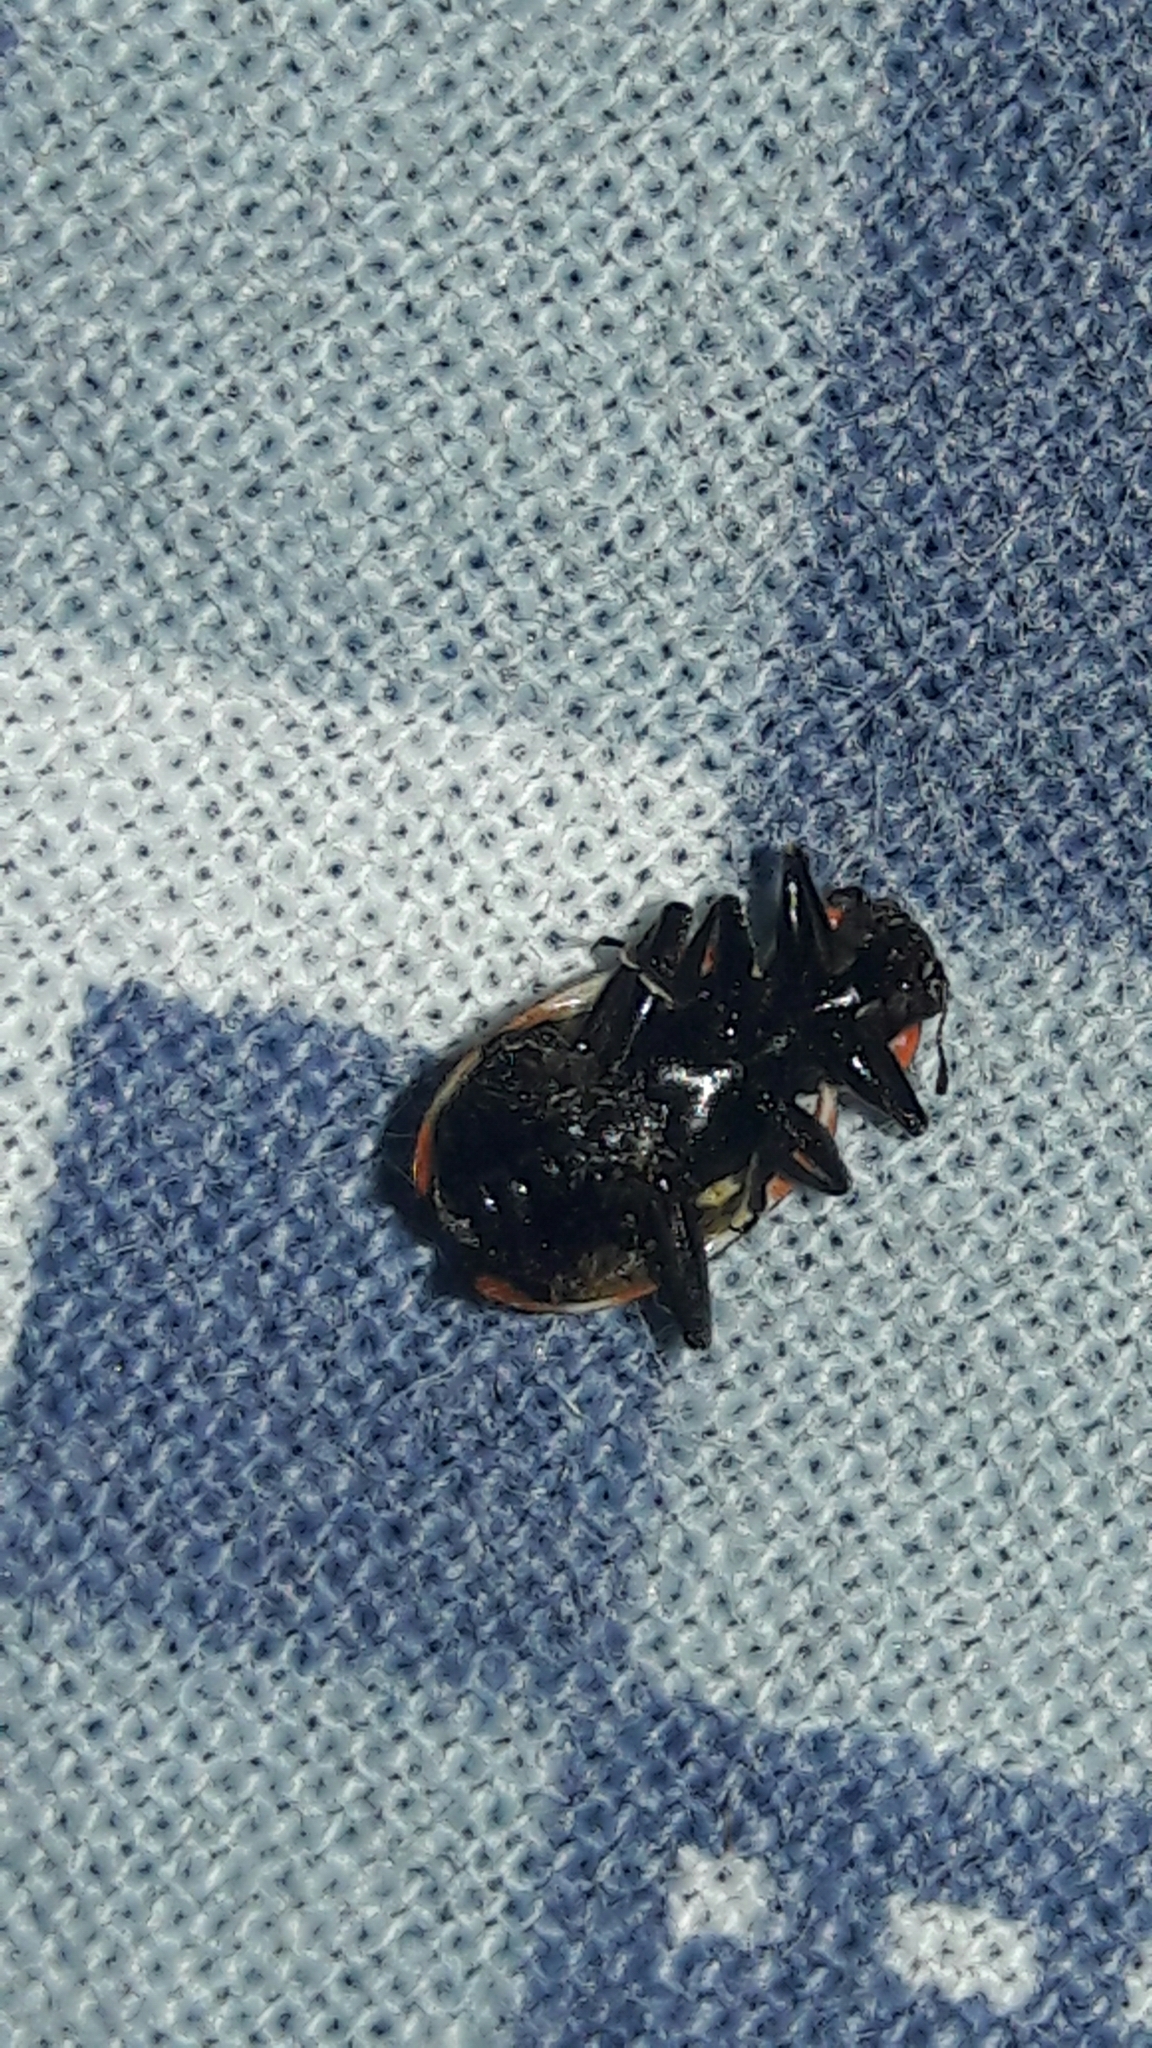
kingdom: Animalia
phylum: Arthropoda
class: Insecta
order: Coleoptera
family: Coccinellidae
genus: Eriopis
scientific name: Eriopis connexa
